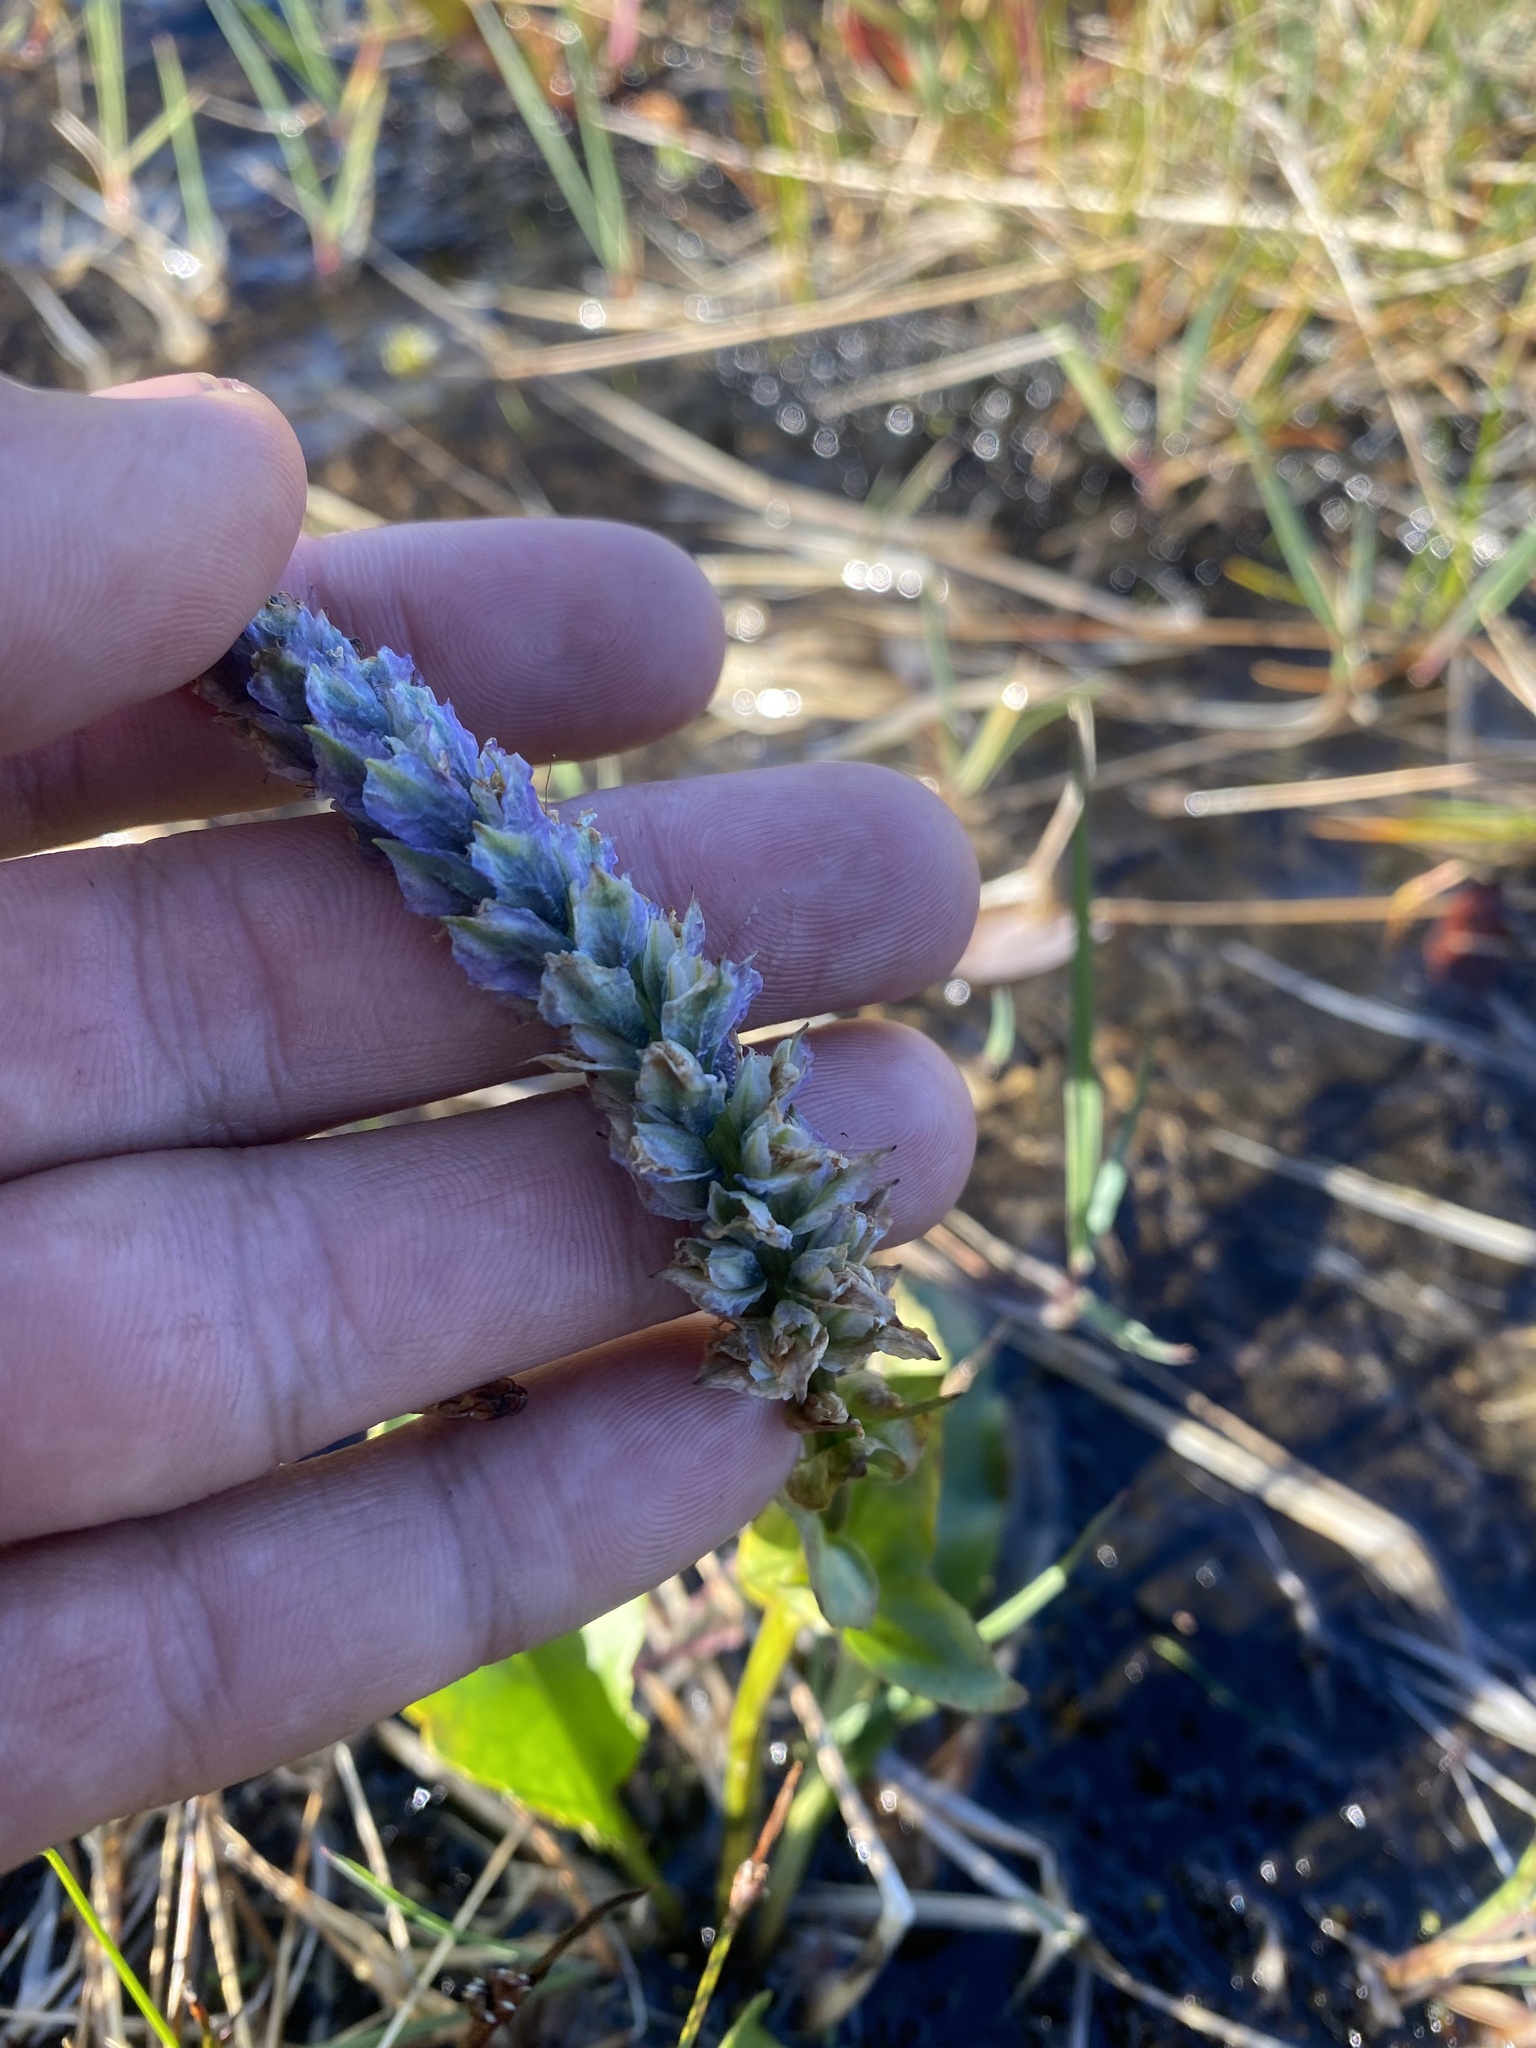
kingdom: Plantae
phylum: Tracheophyta
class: Magnoliopsida
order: Lamiales
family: Plantaginaceae
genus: Lagotis
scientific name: Lagotis glauca
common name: Glaucous weaselsnout
